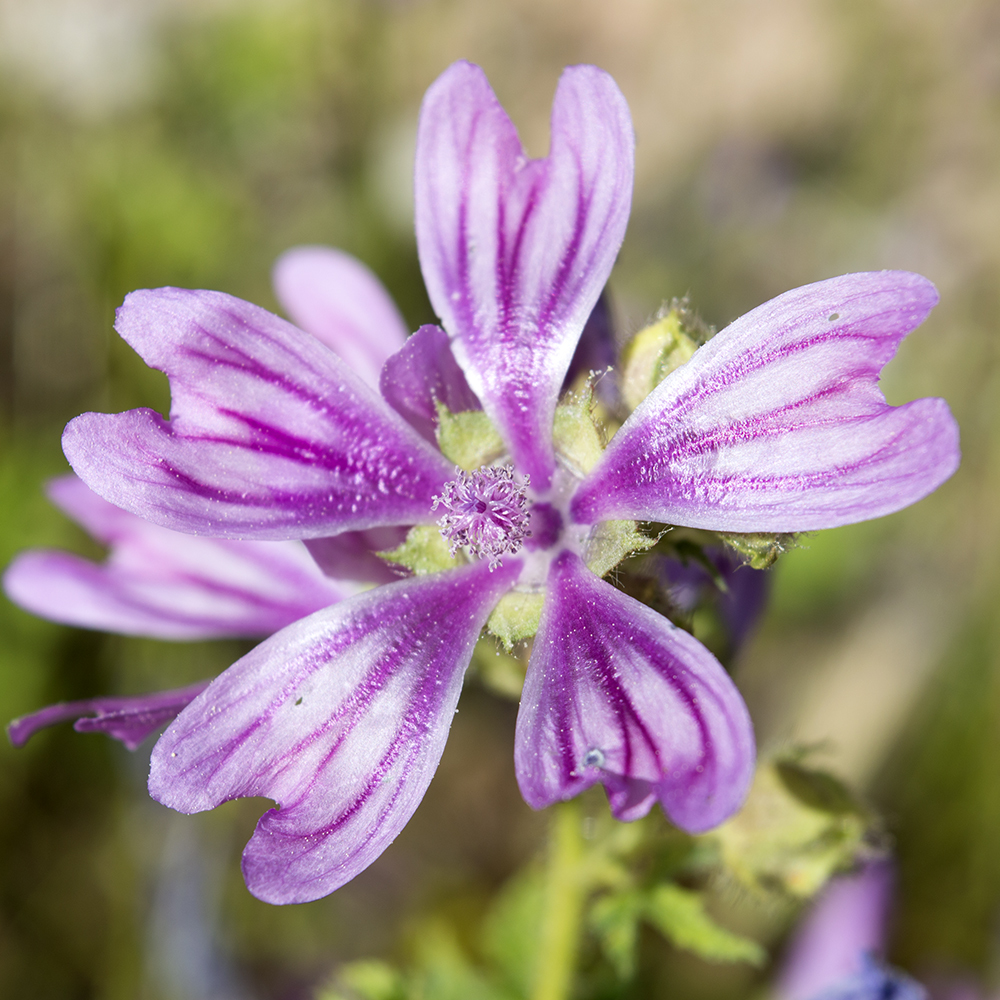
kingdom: Plantae
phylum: Tracheophyta
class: Magnoliopsida
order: Malvales
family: Malvaceae
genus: Malva
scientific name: Malva sylvestris
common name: Common mallow
